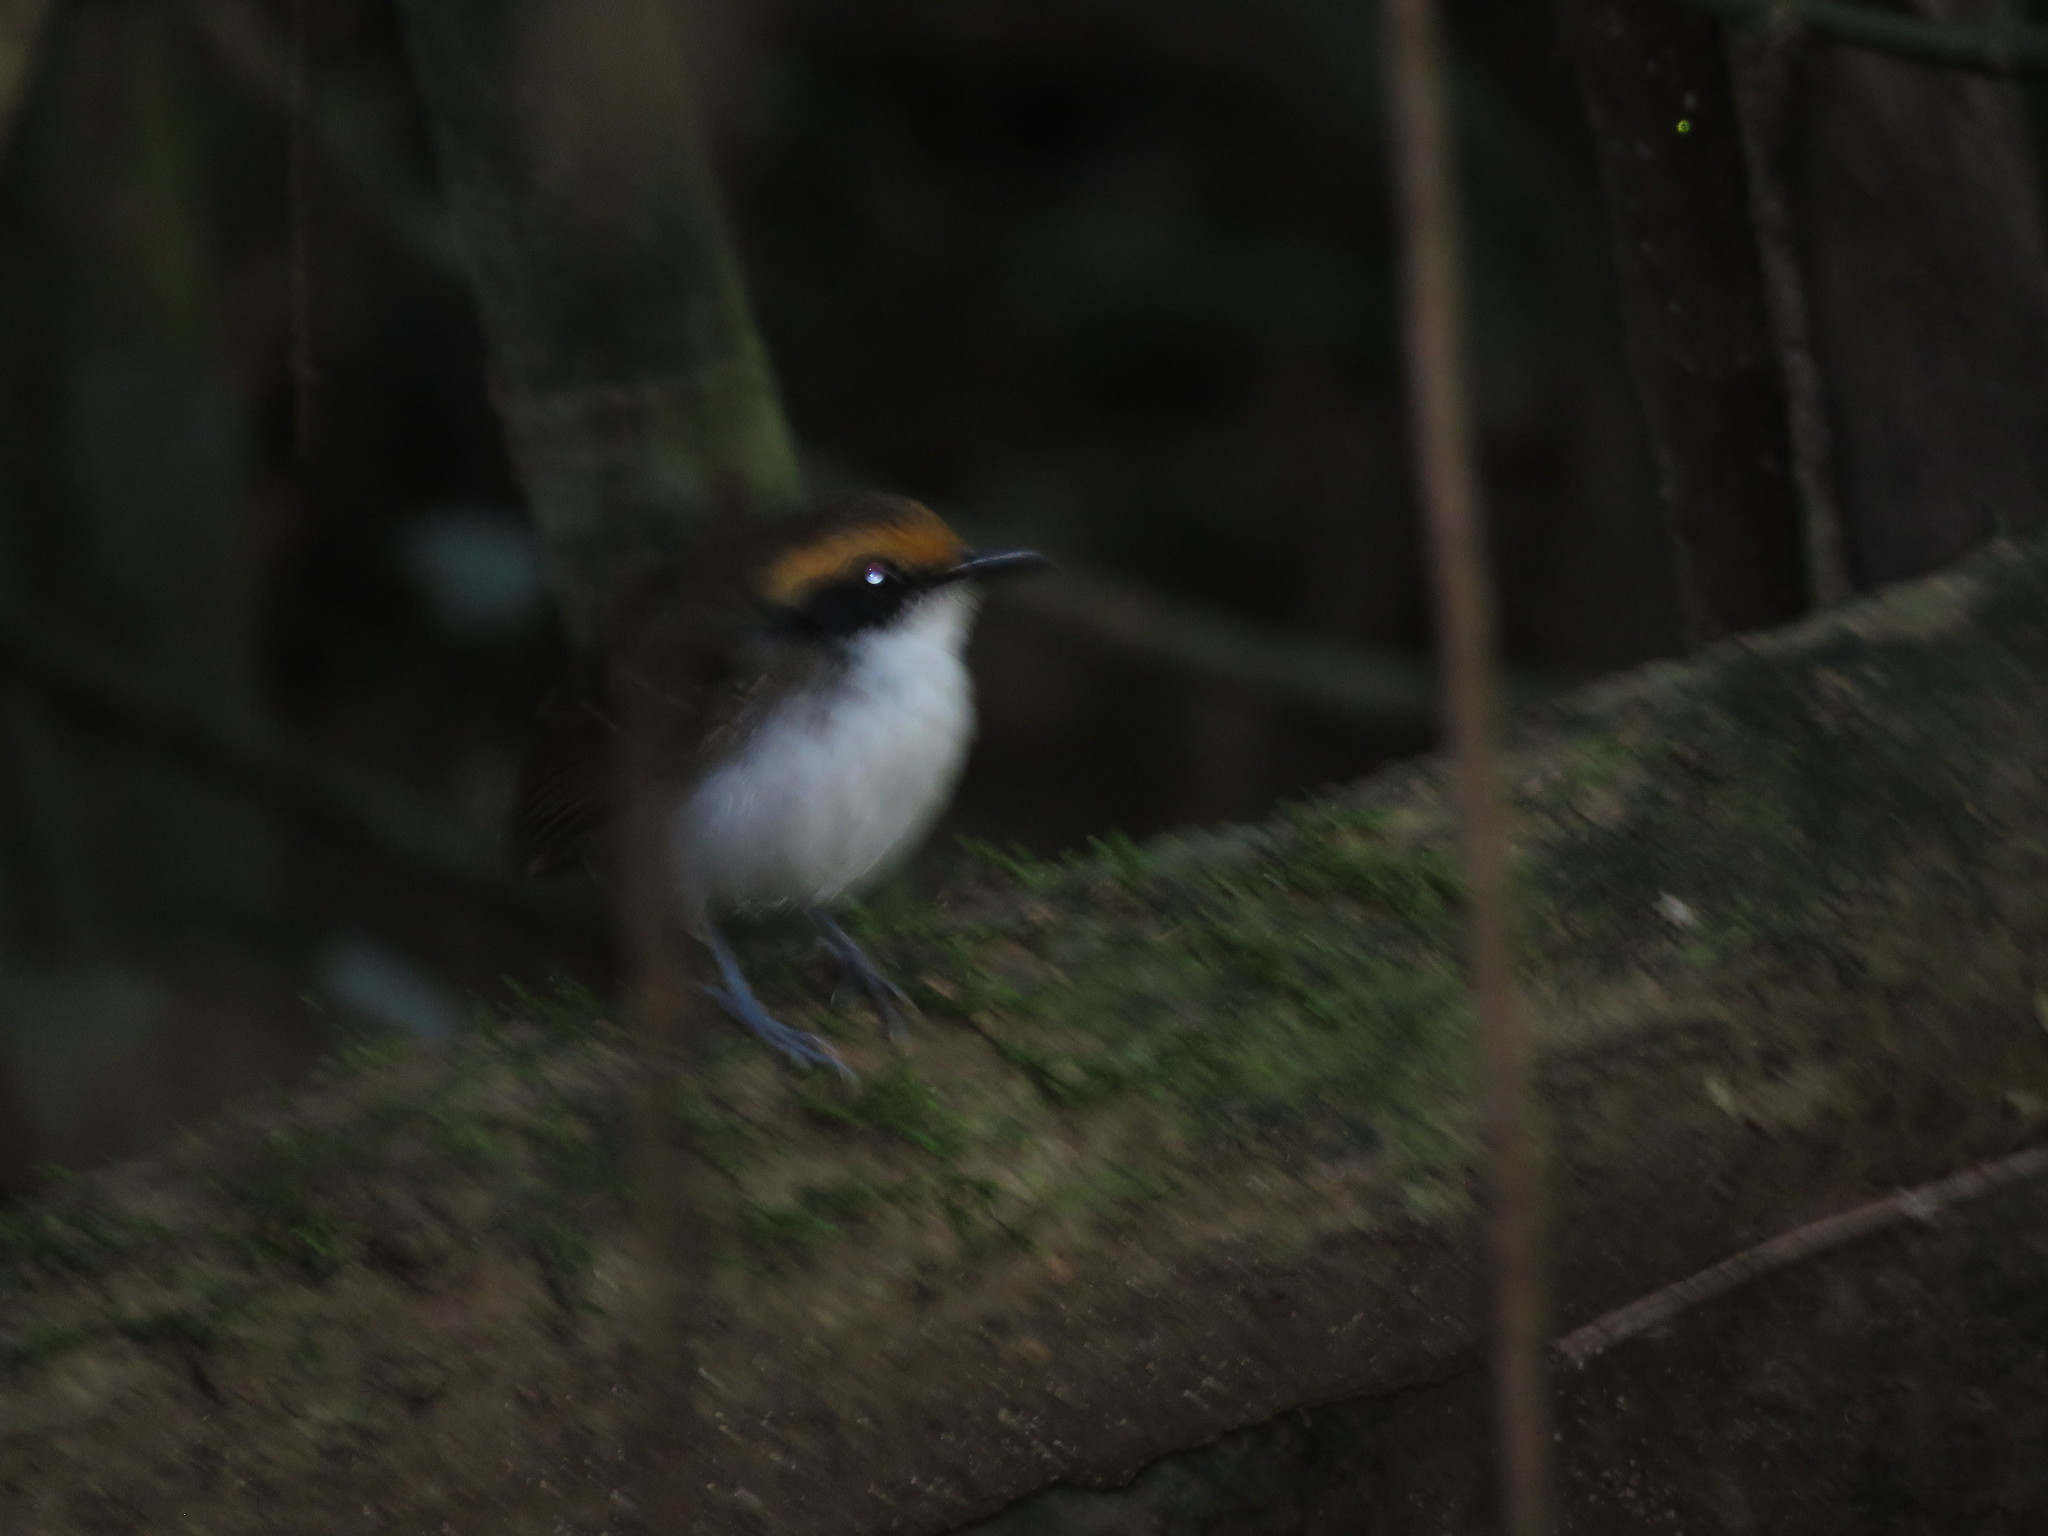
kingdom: Animalia
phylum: Chordata
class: Aves
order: Passeriformes
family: Thamnophilidae
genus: Myrmoborus
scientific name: Myrmoborus leucophrys
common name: White-browed antbird
